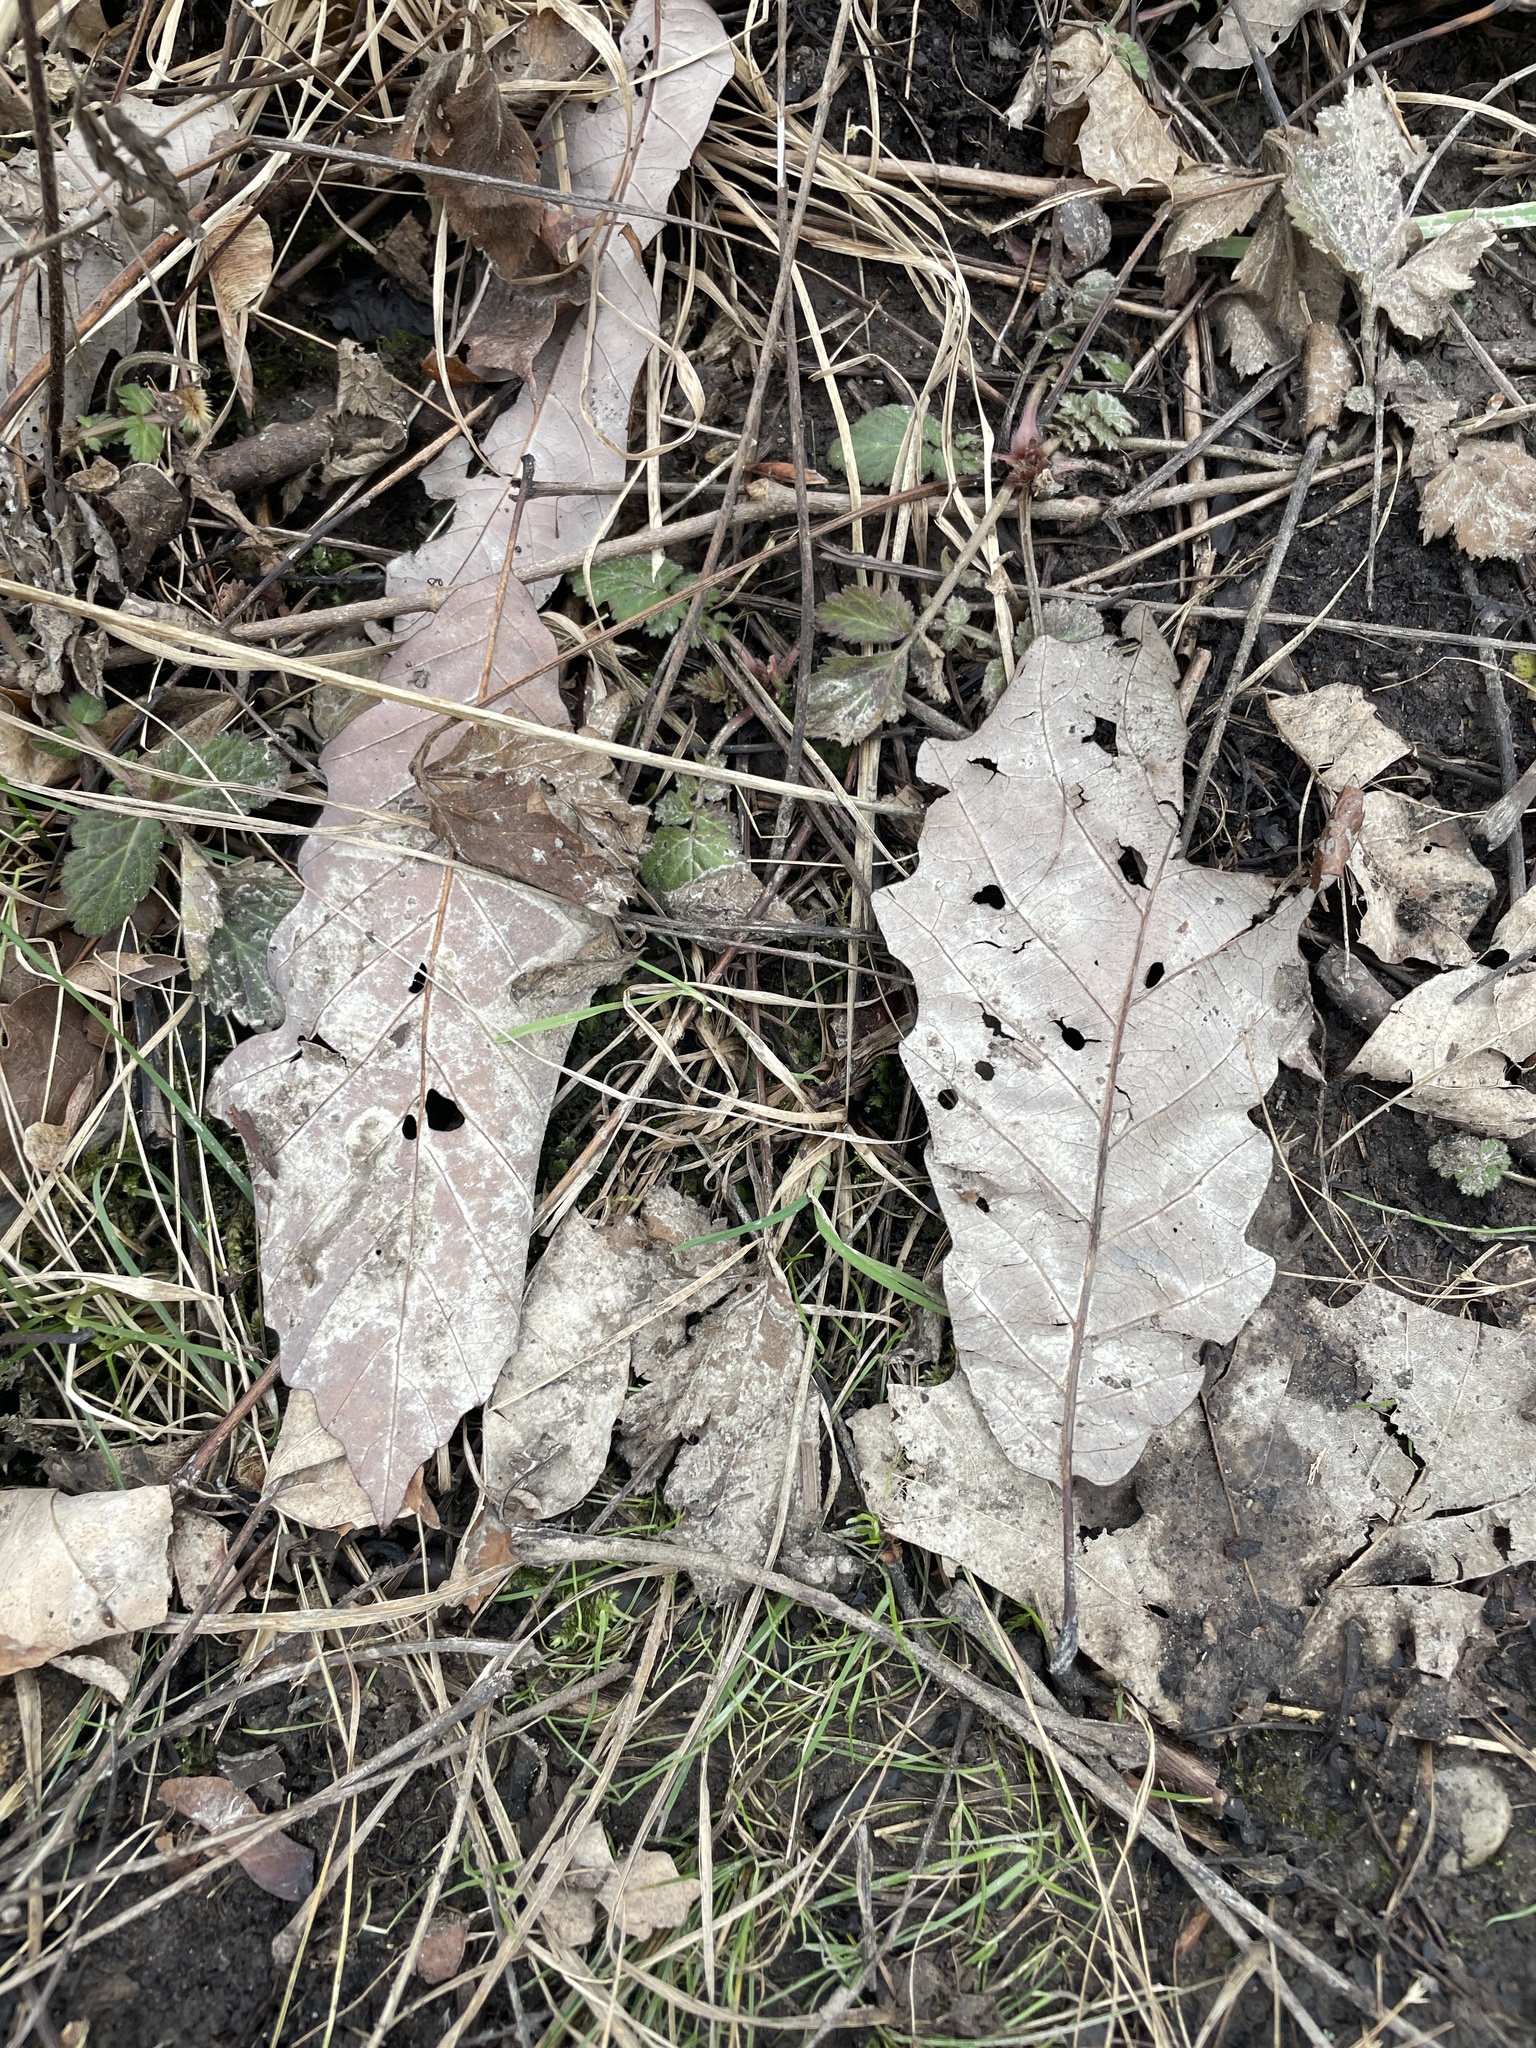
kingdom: Plantae
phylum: Tracheophyta
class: Magnoliopsida
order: Fagales
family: Fagaceae
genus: Quercus
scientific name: Quercus muehlenbergii
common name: Chinkapin oak
